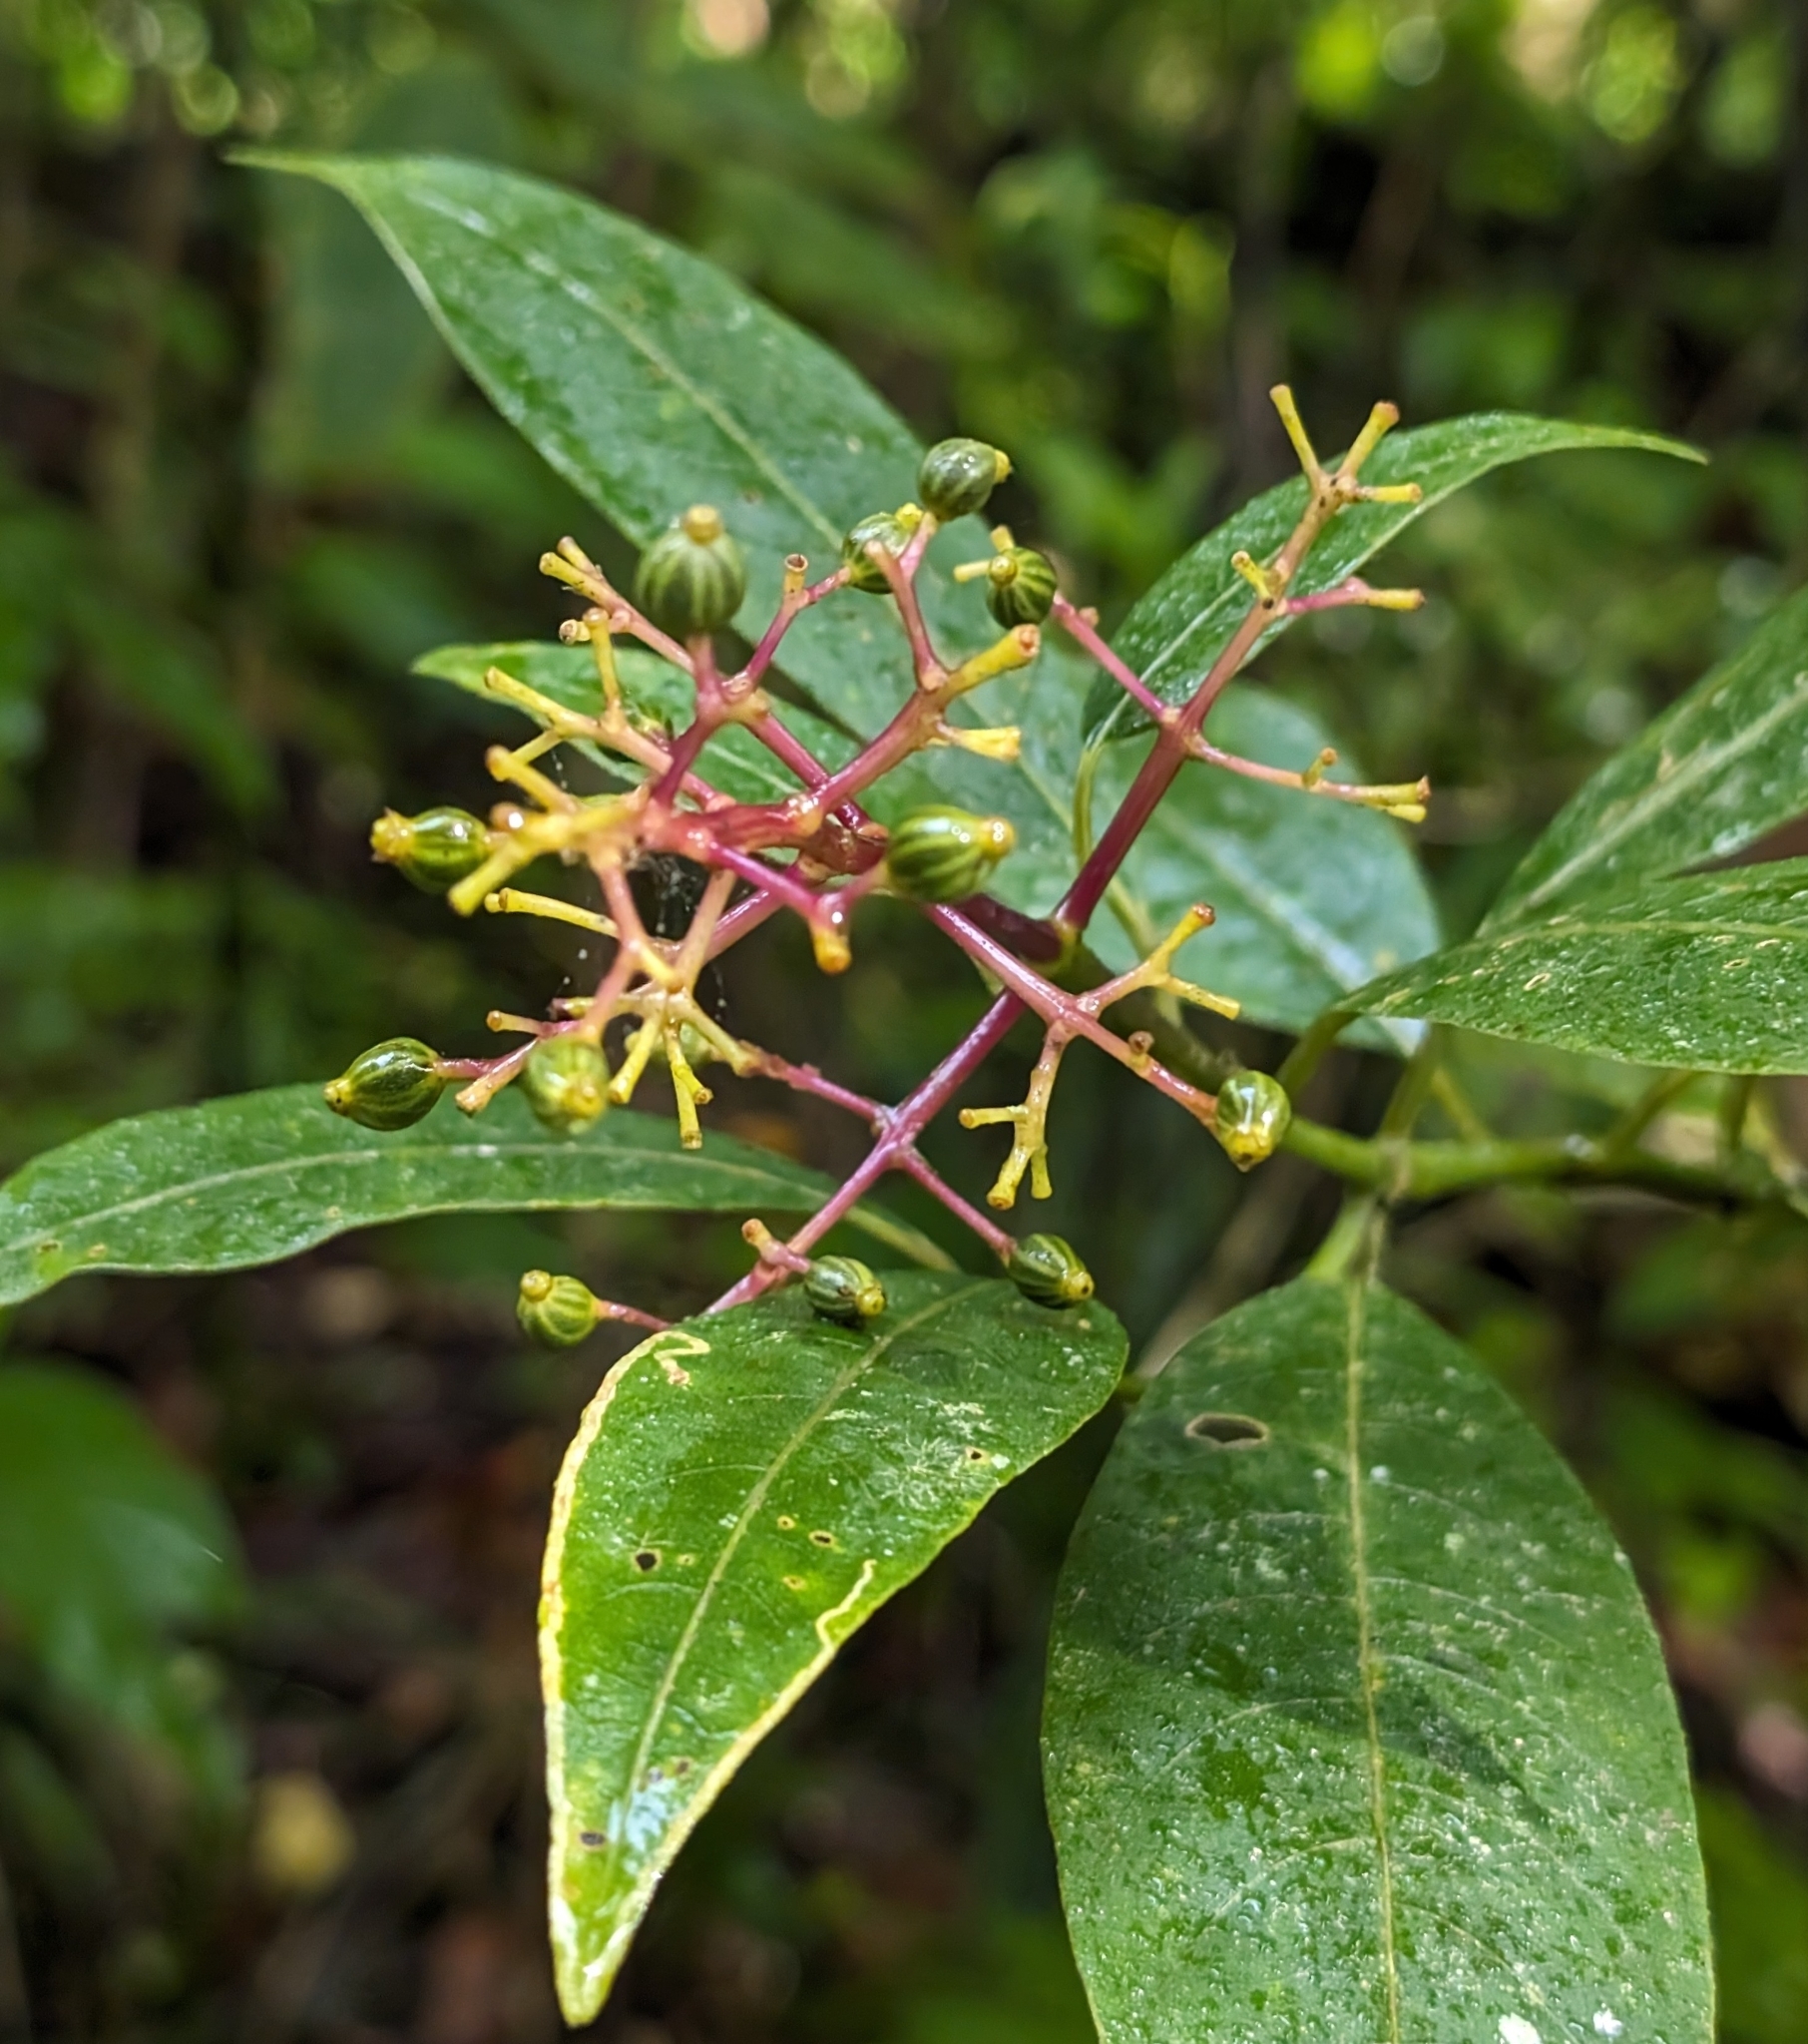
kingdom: Plantae
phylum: Tracheophyta
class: Magnoliopsida
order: Gentianales
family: Rubiaceae
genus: Palicourea
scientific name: Palicourea padifolia
